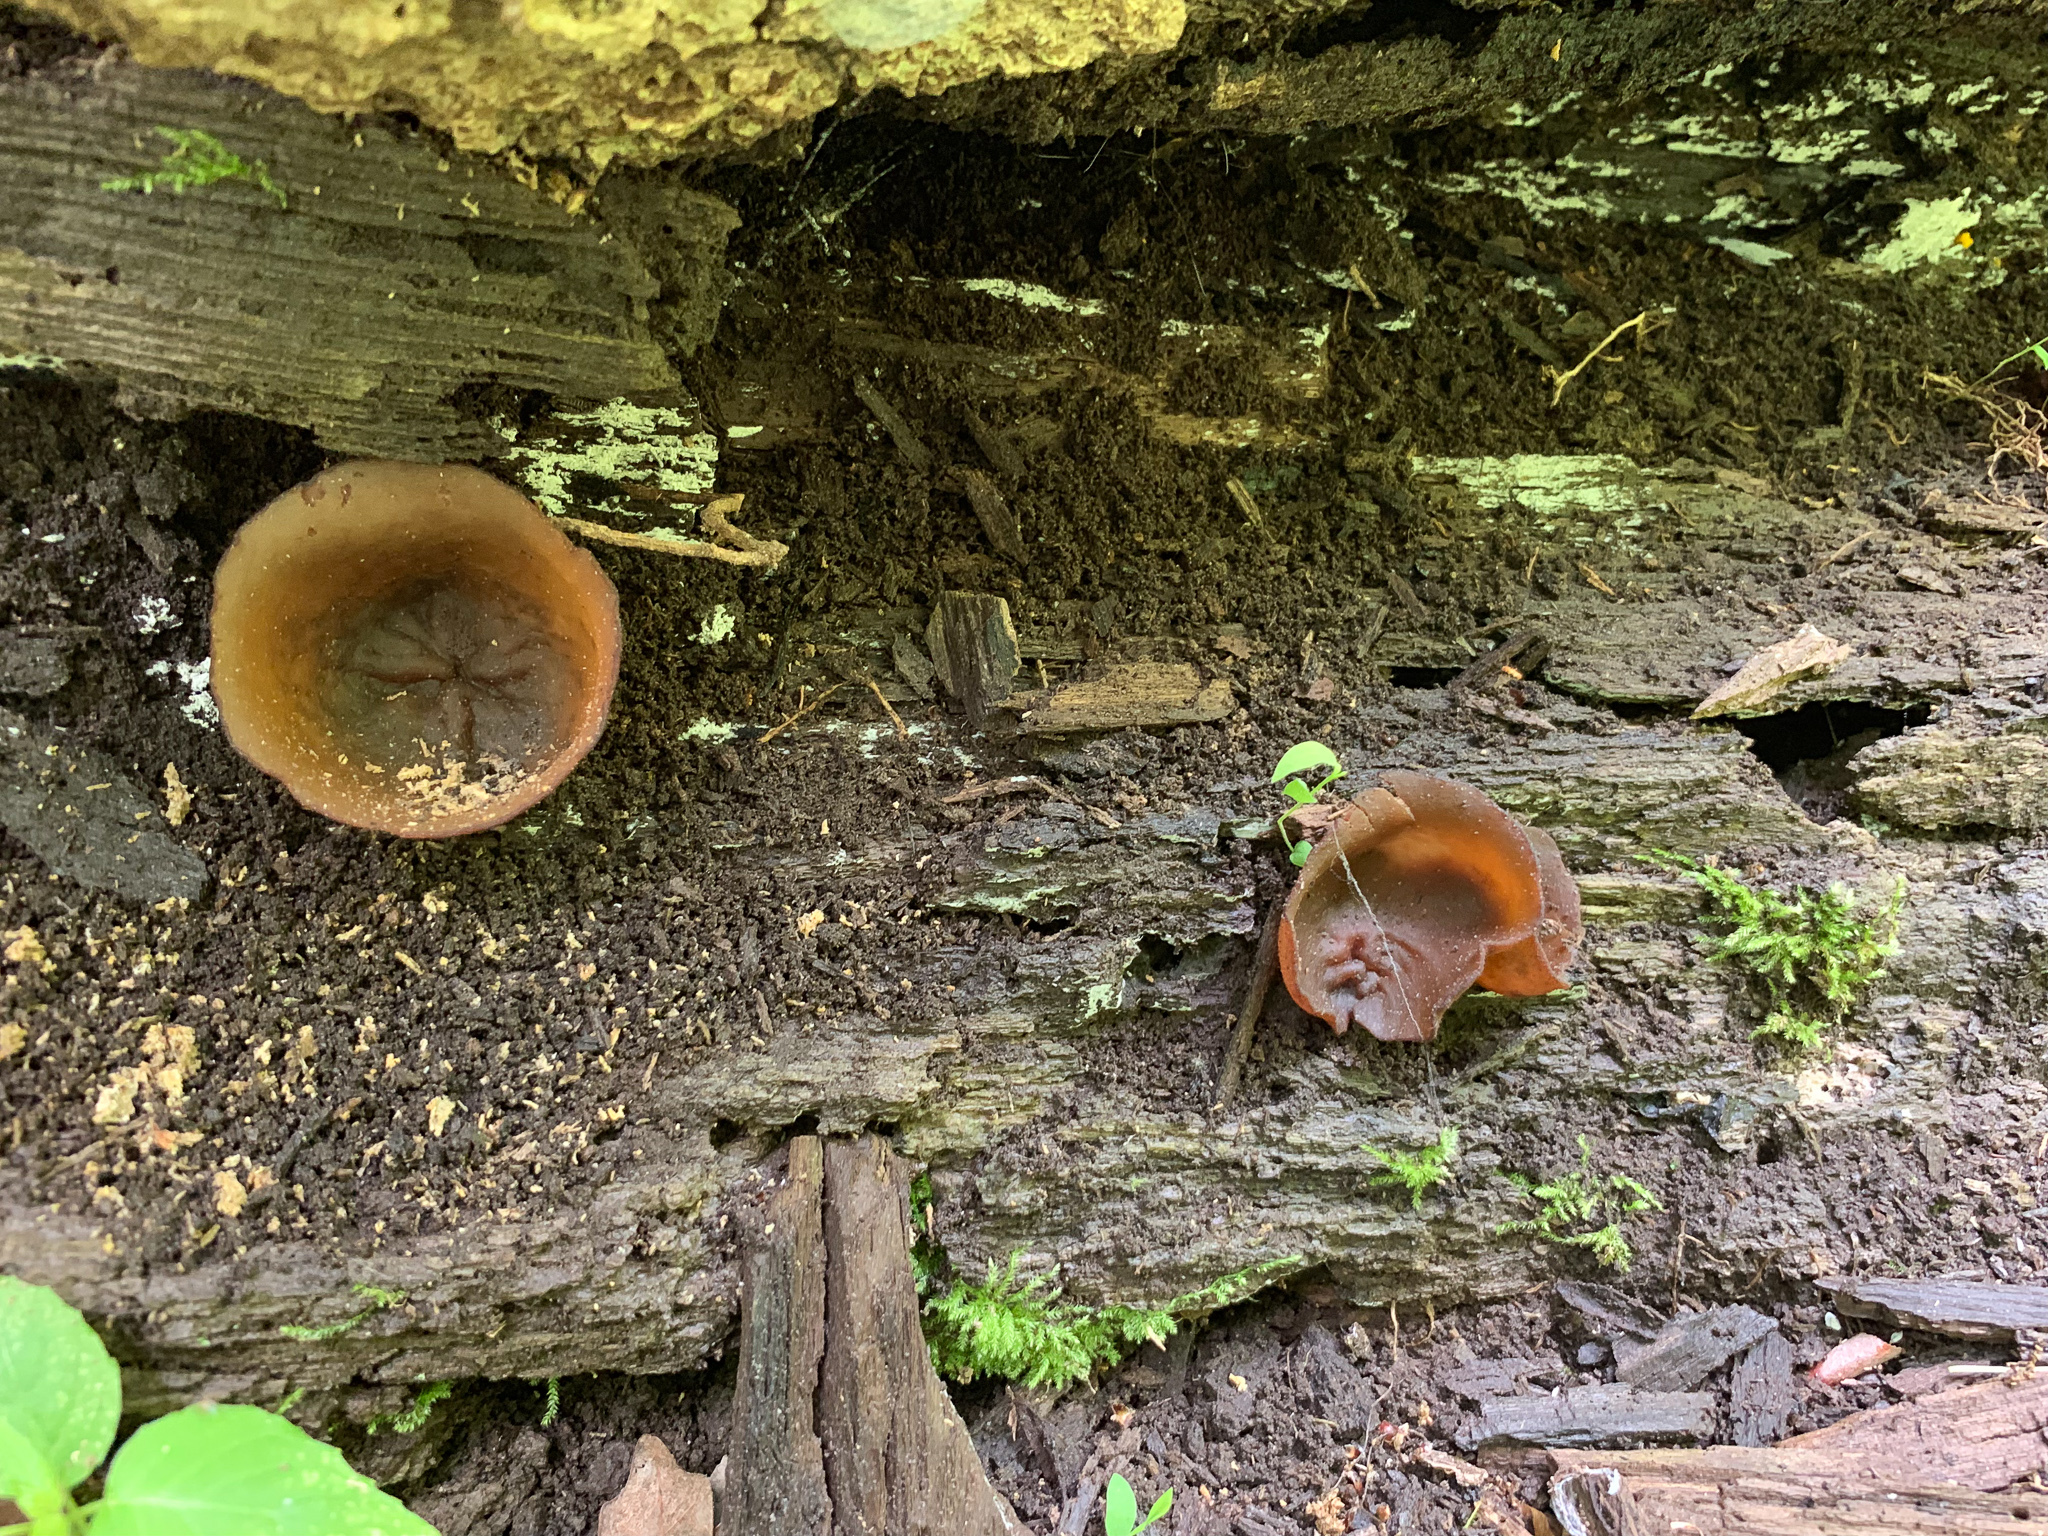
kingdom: Fungi
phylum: Ascomycota
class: Pezizomycetes
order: Pezizales
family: Pezizaceae
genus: Phylloscypha
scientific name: Phylloscypha phyllogena
